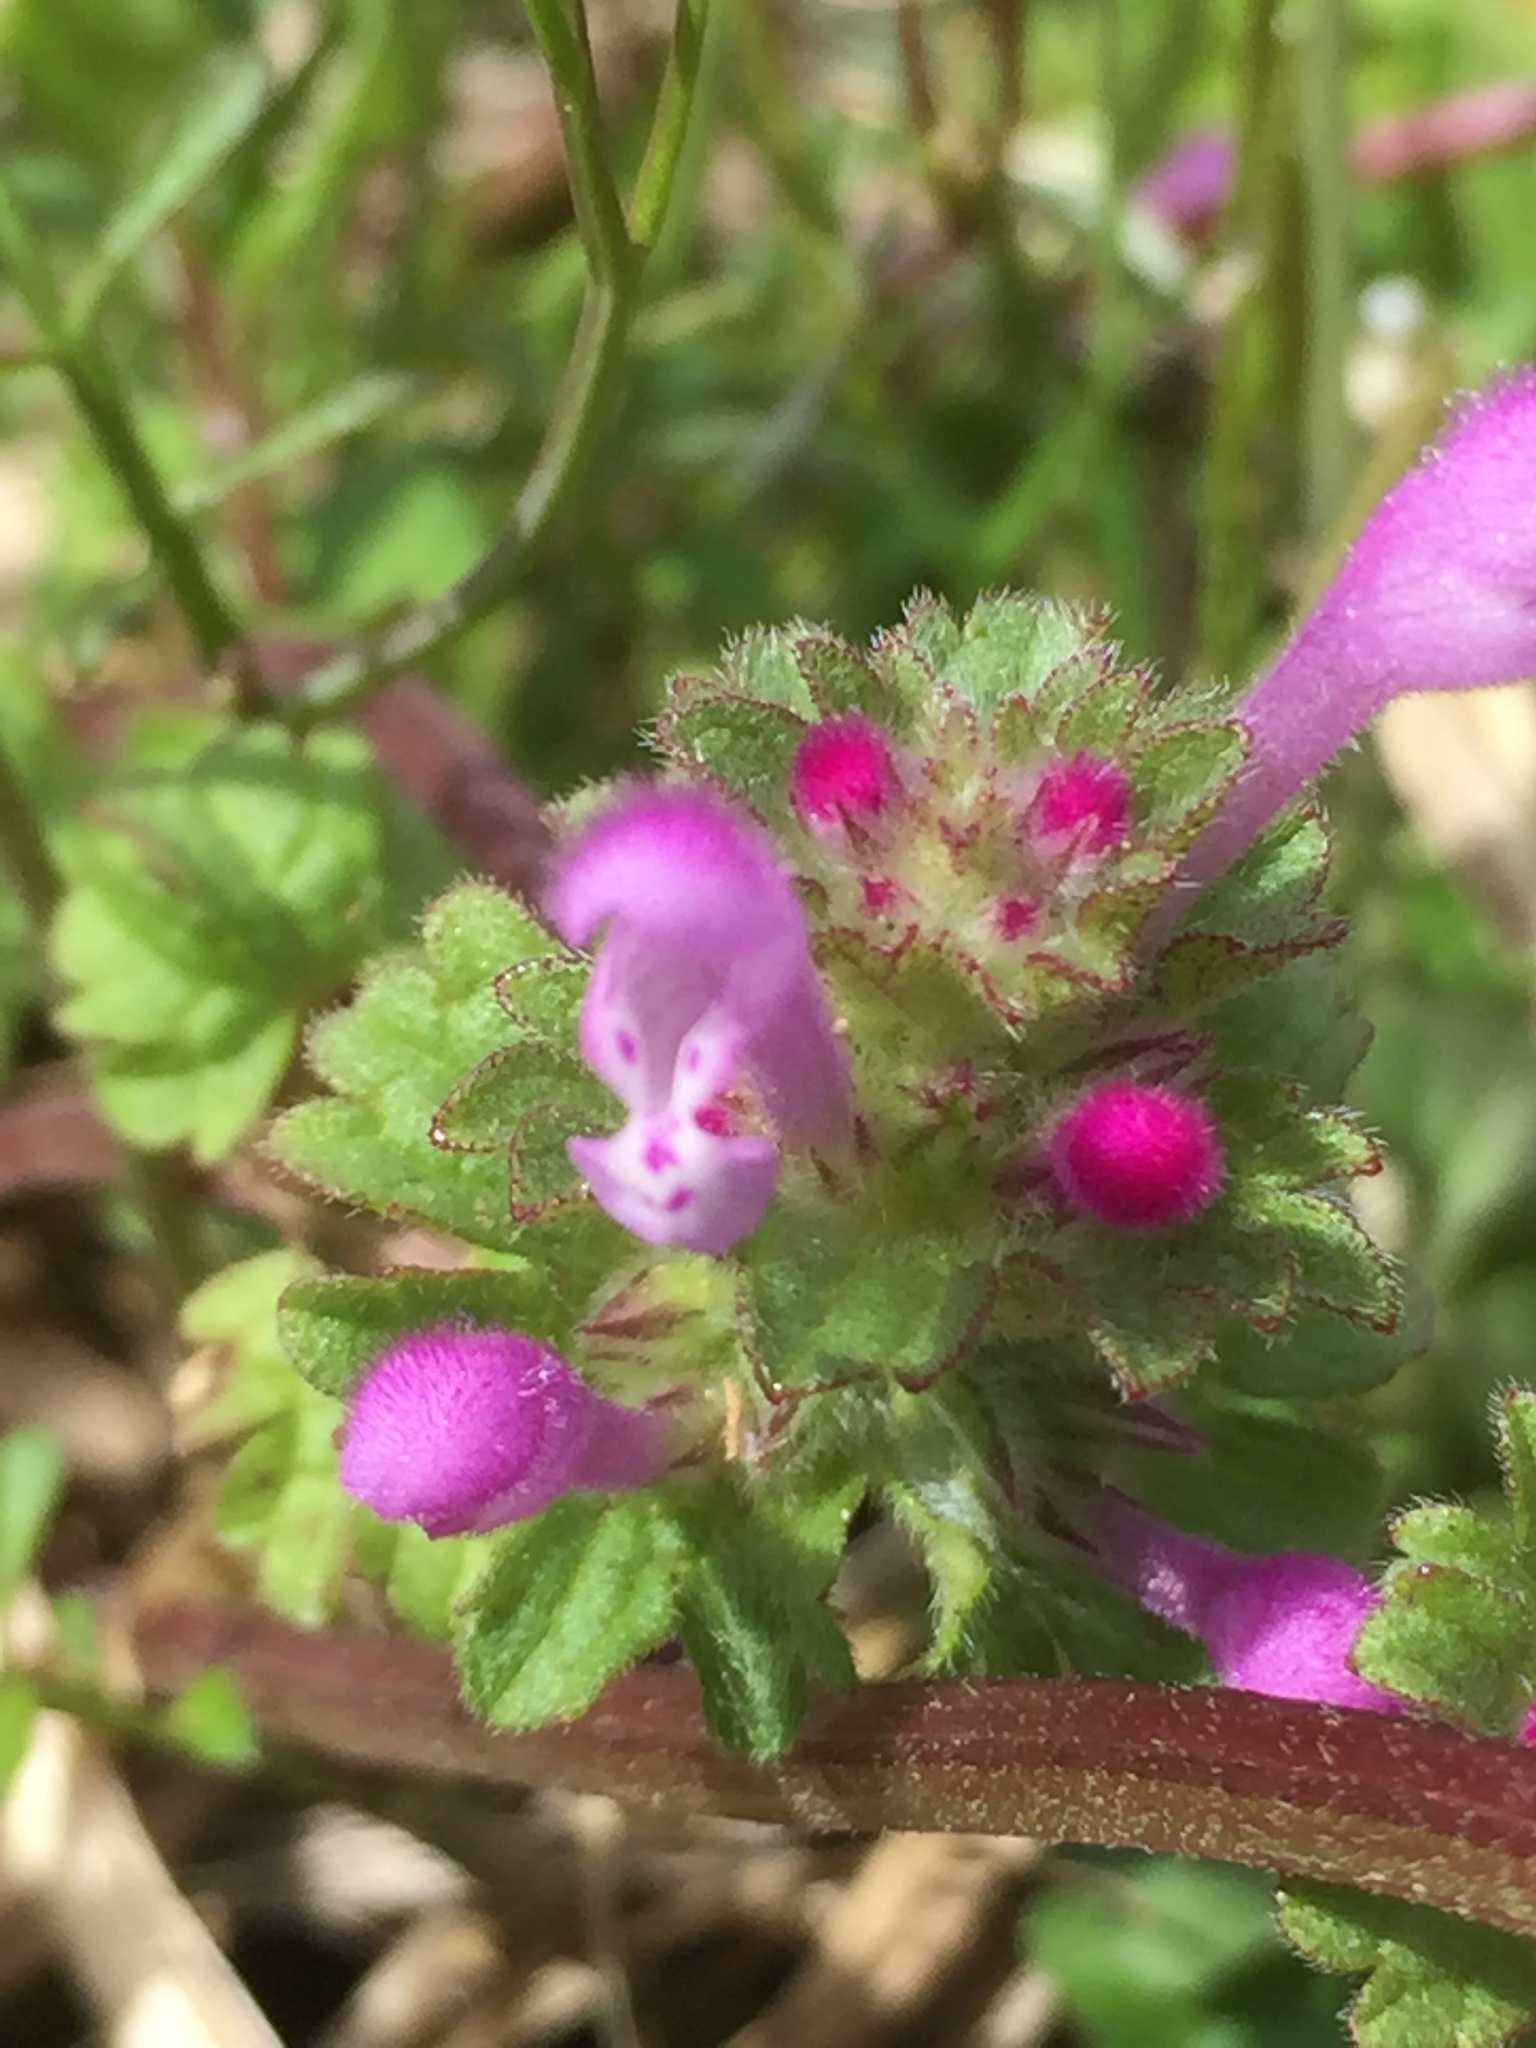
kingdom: Plantae
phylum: Tracheophyta
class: Magnoliopsida
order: Lamiales
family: Lamiaceae
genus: Lamium
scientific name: Lamium amplexicaule
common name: Henbit dead-nettle
